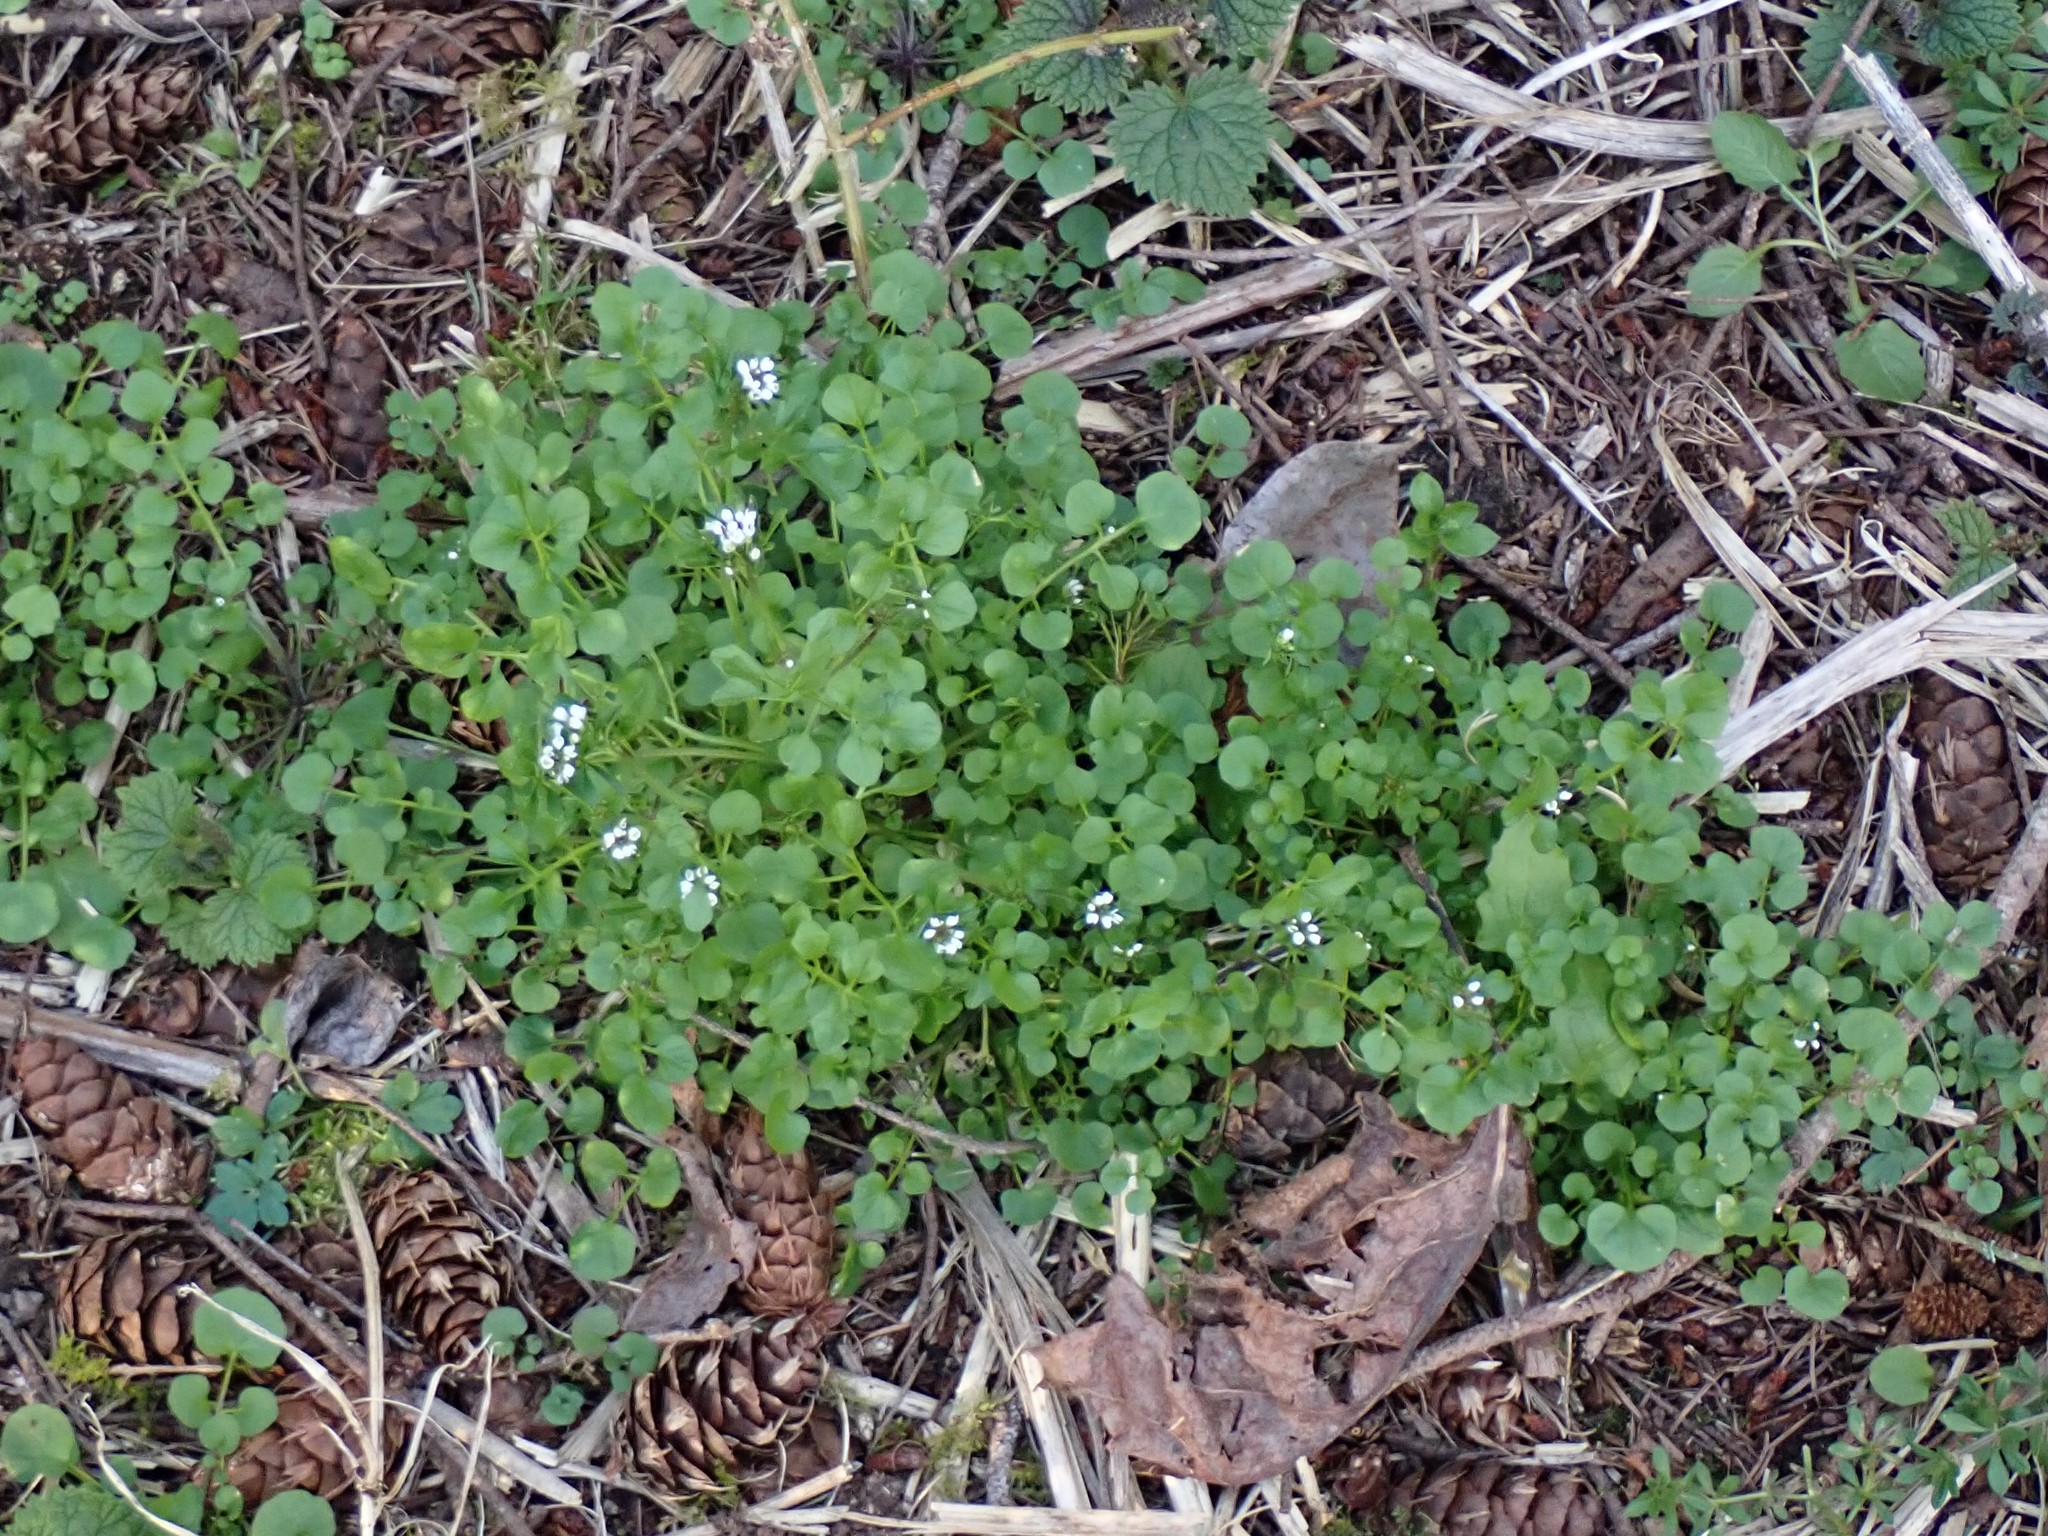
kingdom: Plantae
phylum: Tracheophyta
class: Magnoliopsida
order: Brassicales
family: Brassicaceae
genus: Cardamine
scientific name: Cardamine hirsuta
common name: Hairy bittercress
